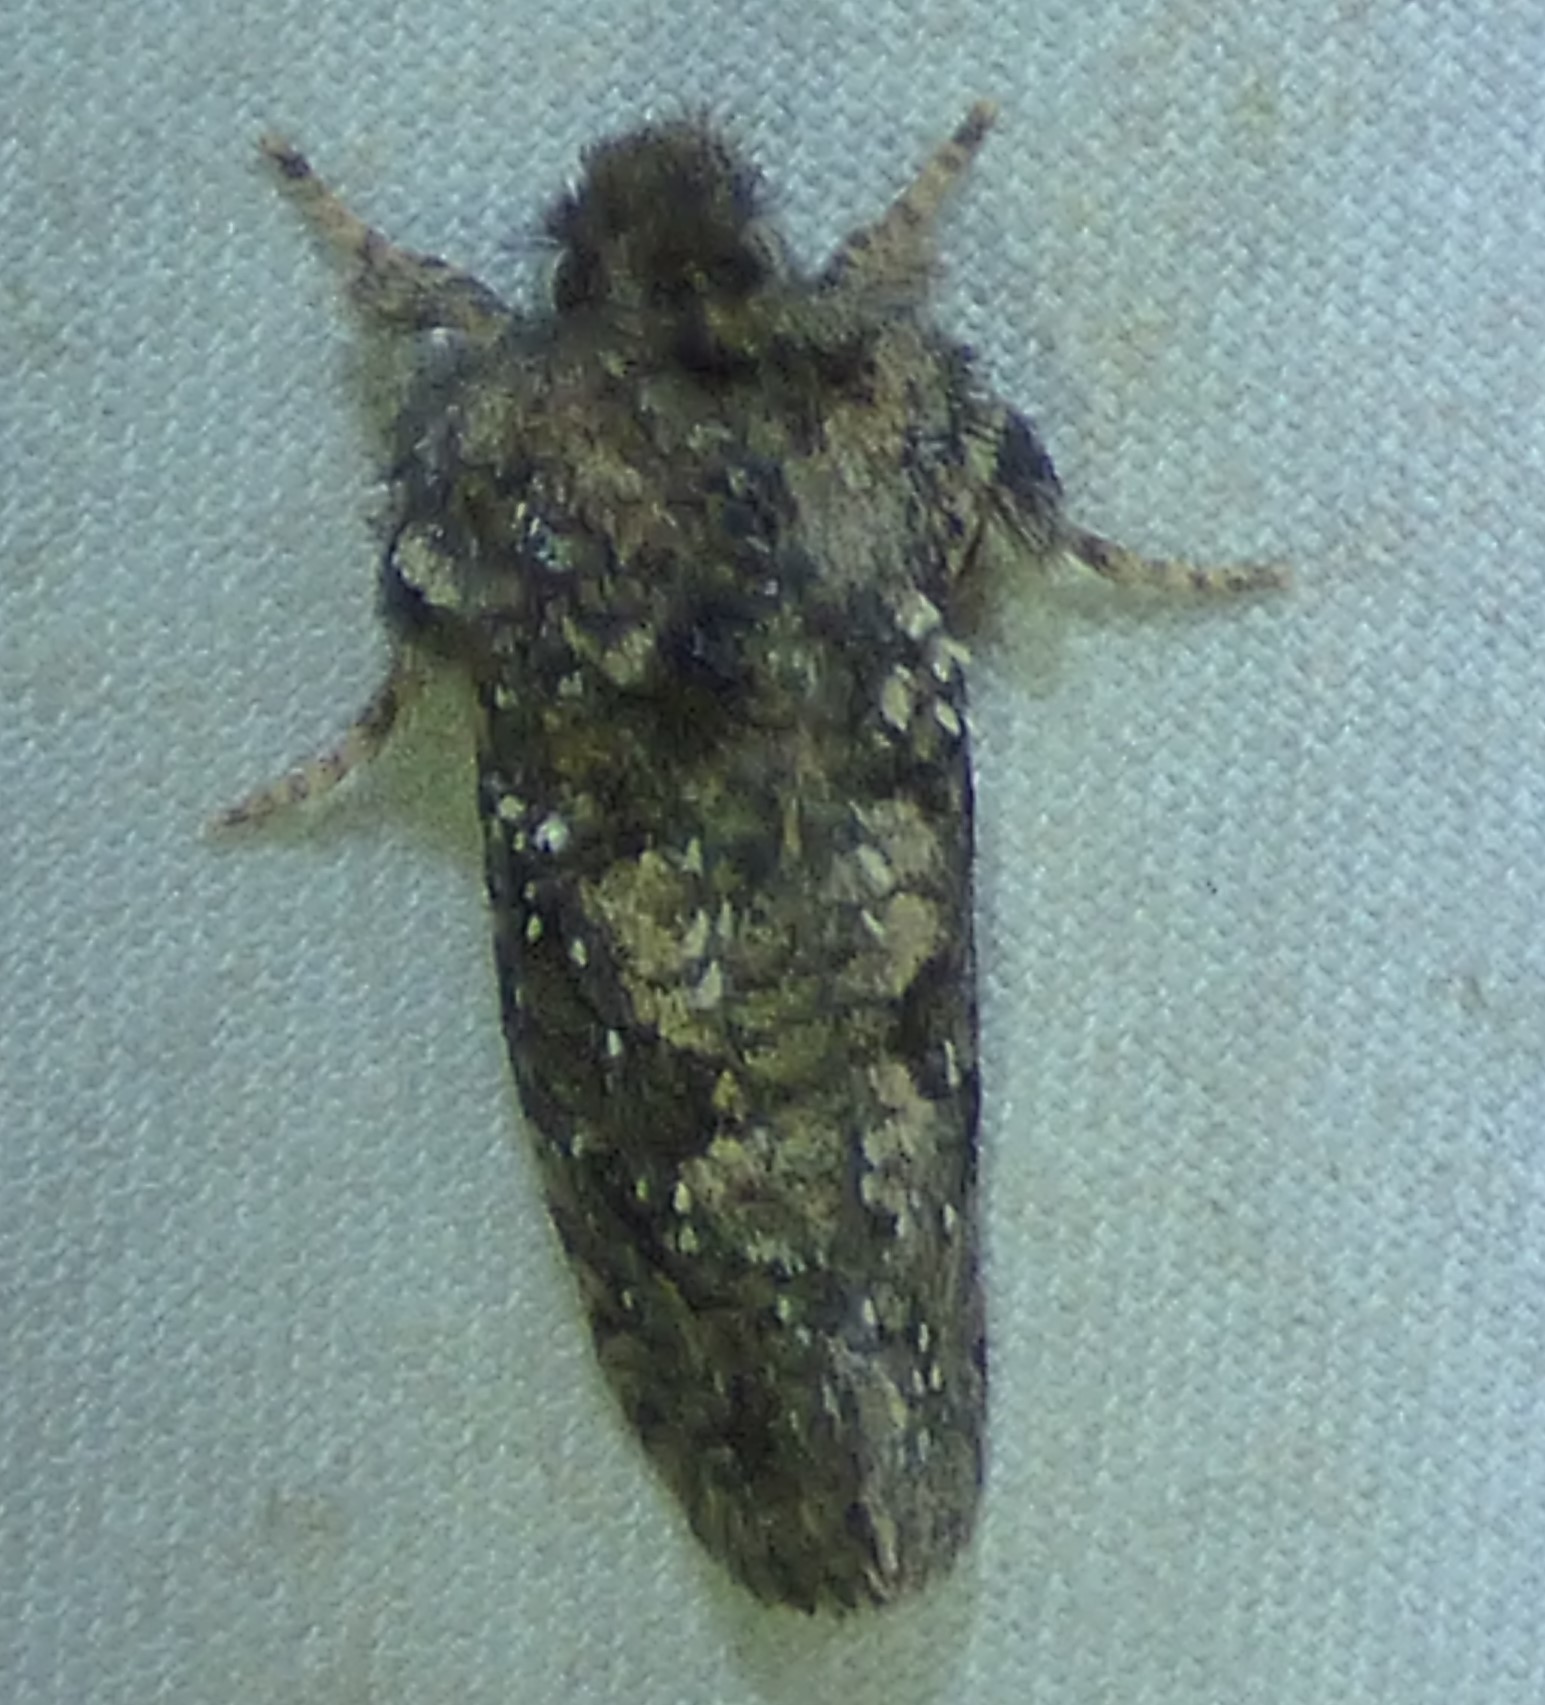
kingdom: Animalia
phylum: Arthropoda
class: Insecta
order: Lepidoptera
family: Tineidae
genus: Acrolophus
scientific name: Acrolophus arcanella
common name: Arcane grass tubeworm moth
